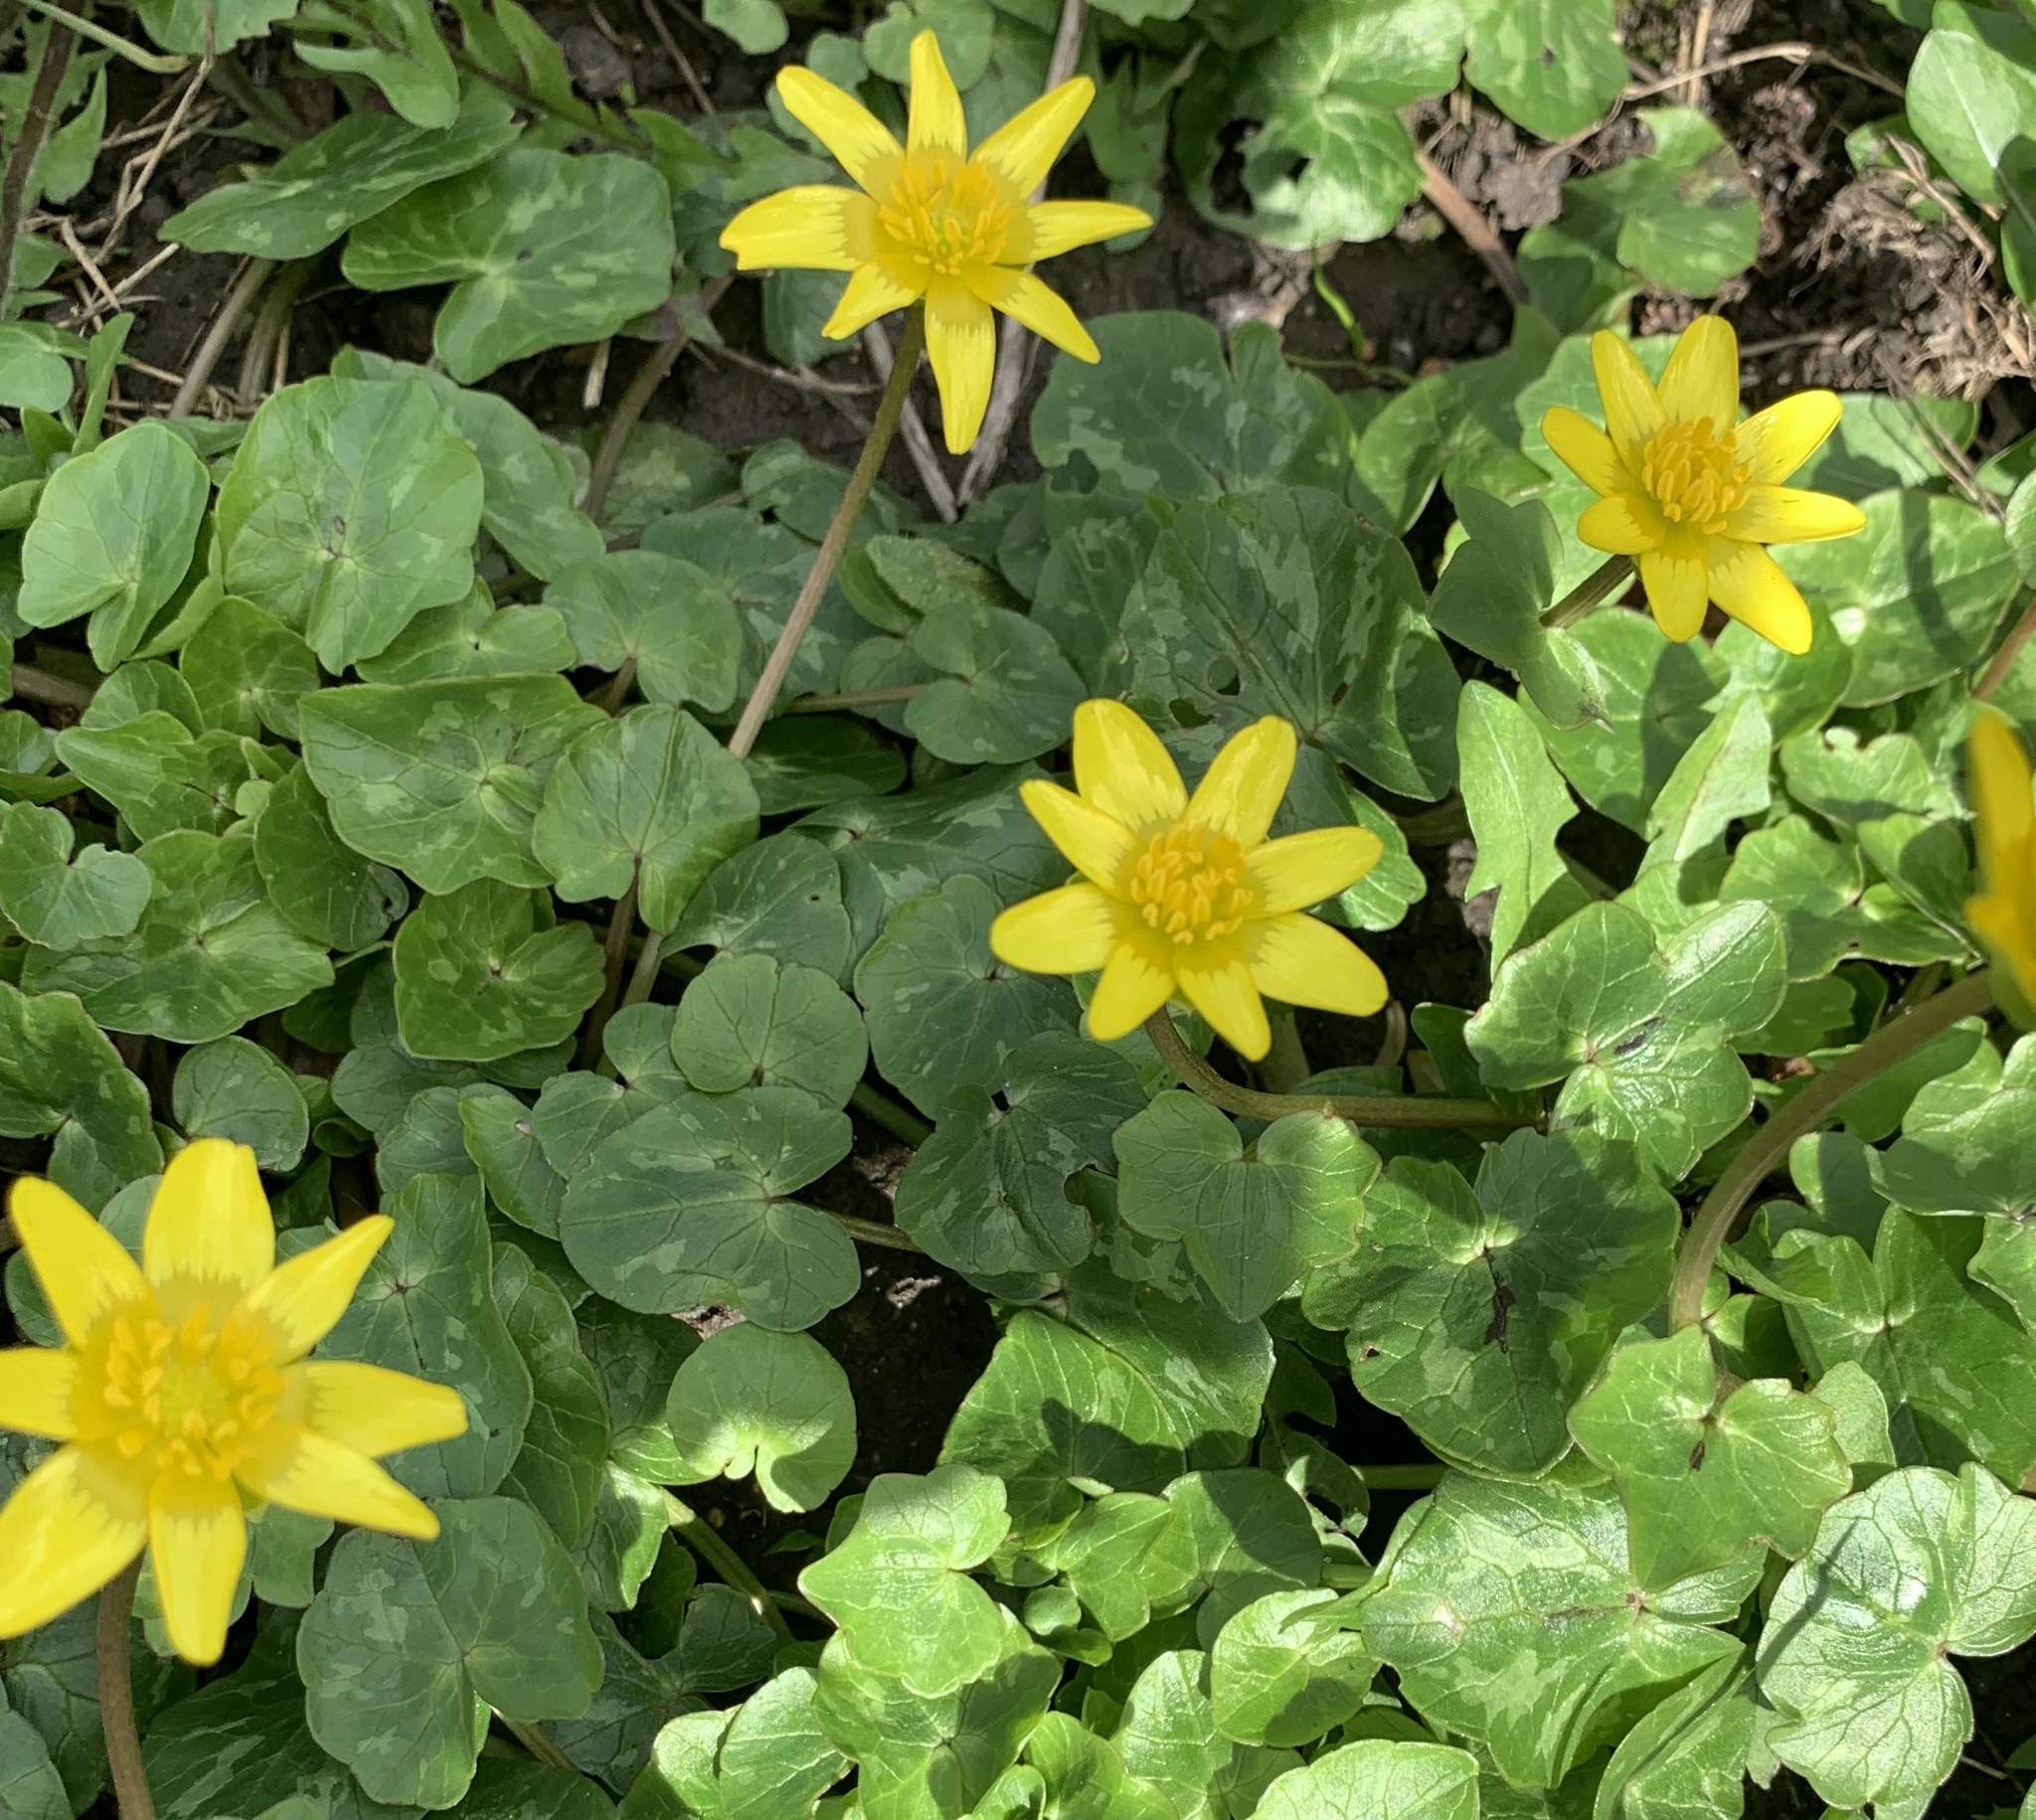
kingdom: Plantae
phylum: Tracheophyta
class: Magnoliopsida
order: Ranunculales
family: Ranunculaceae
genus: Ficaria
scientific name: Ficaria verna
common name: Lesser celandine
